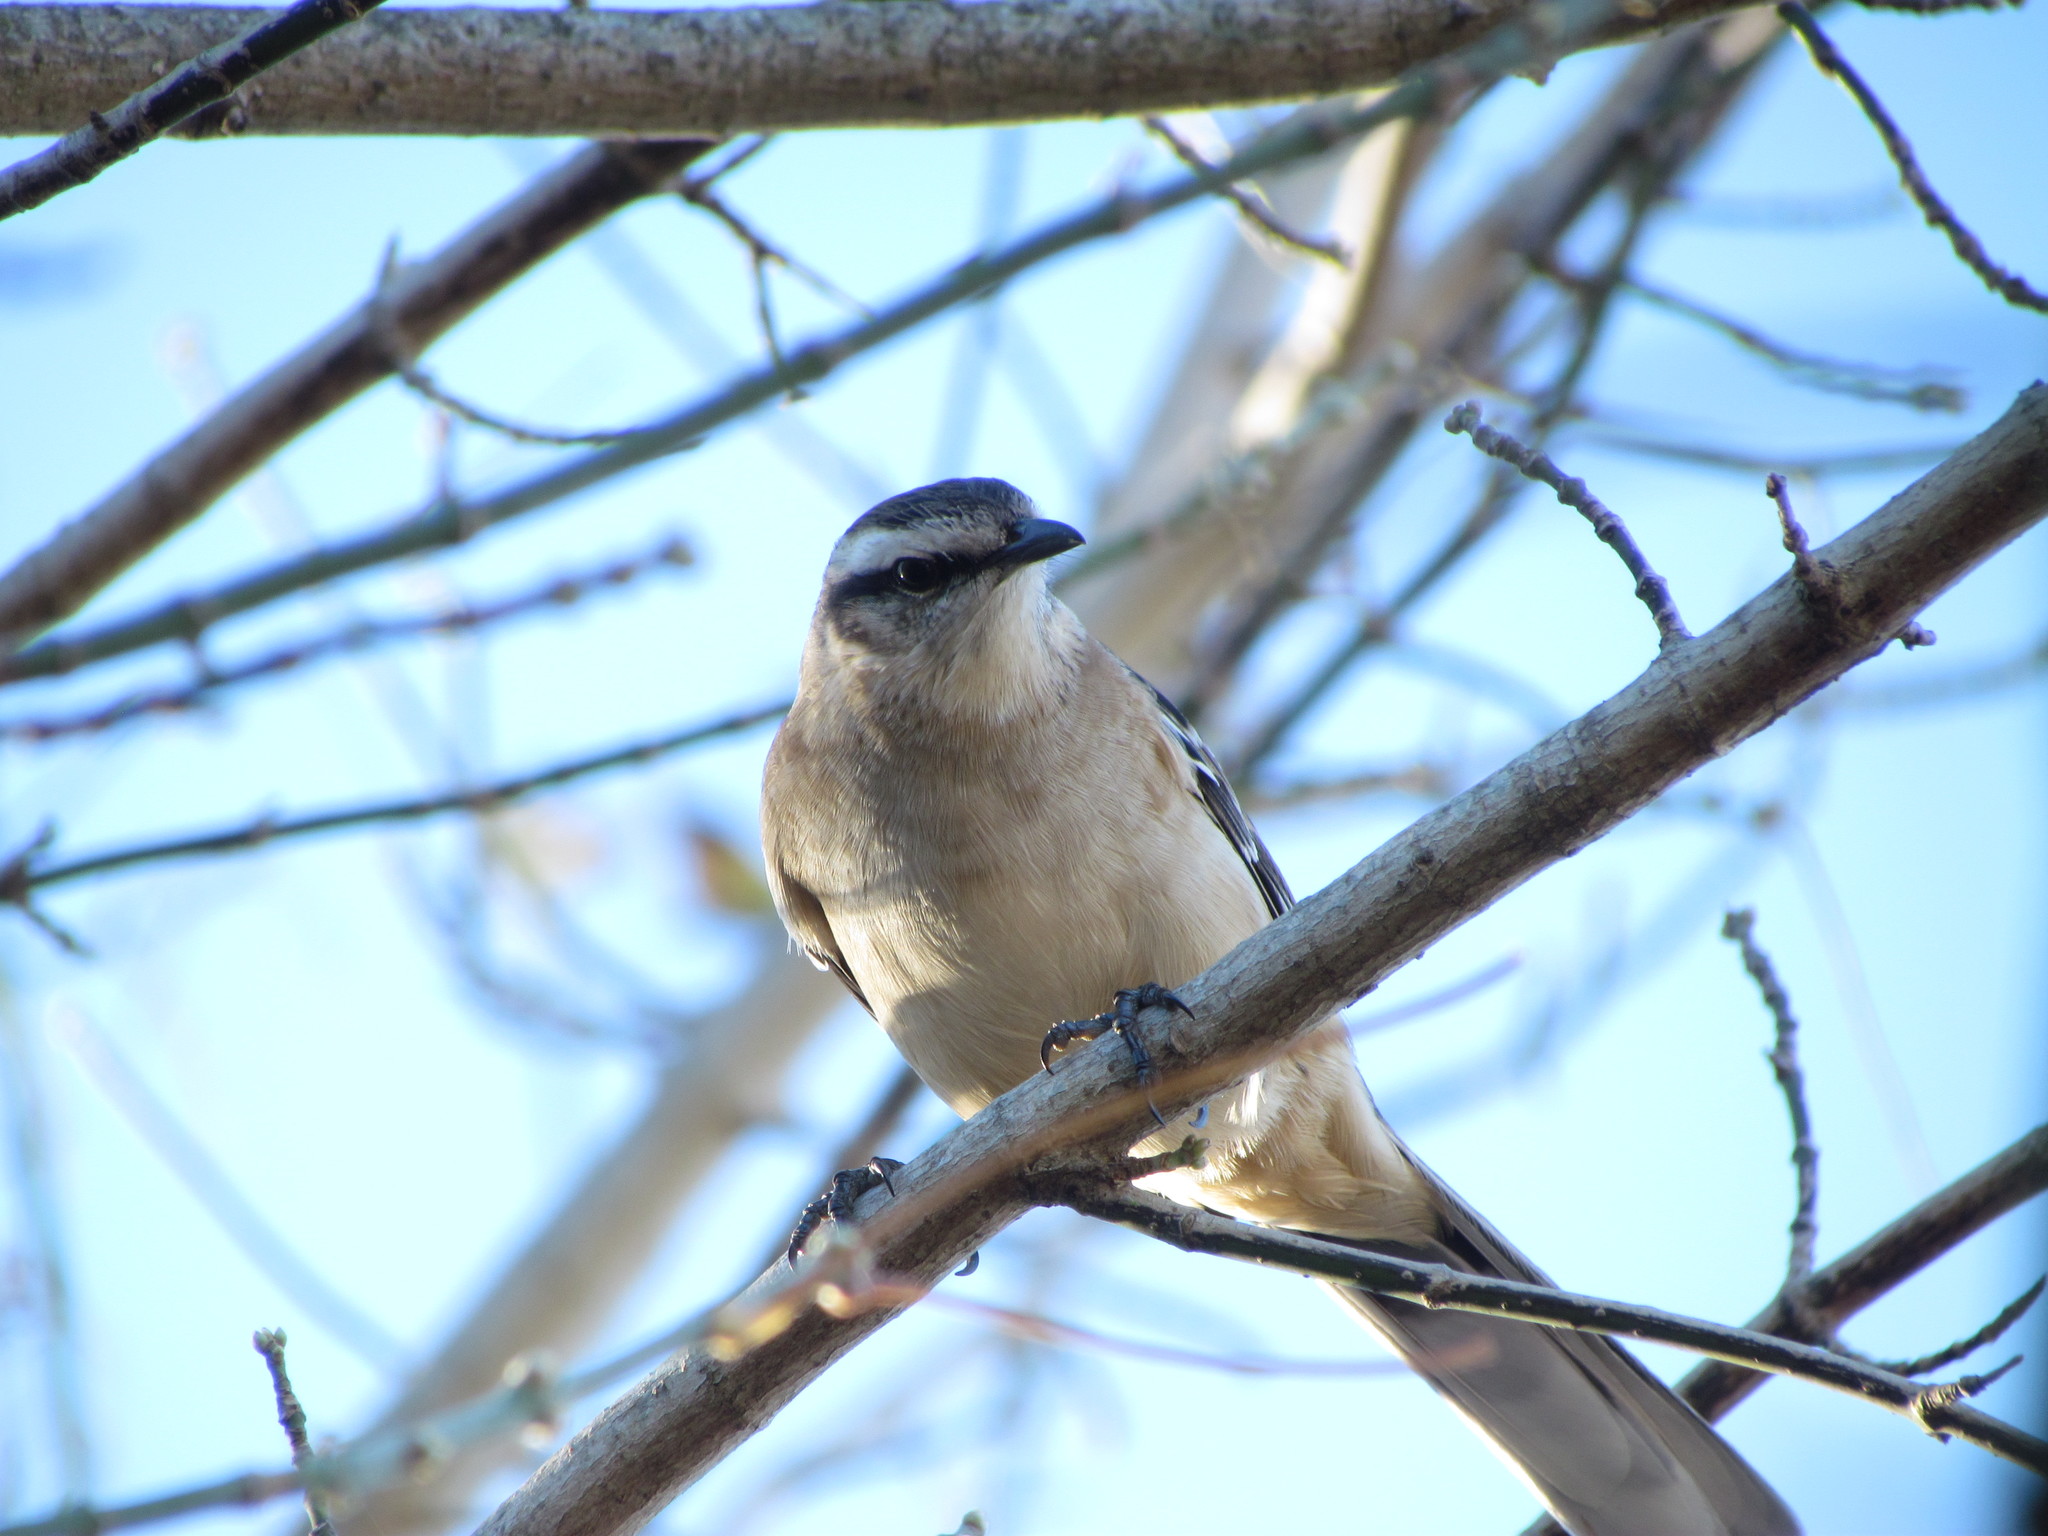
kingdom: Animalia
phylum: Chordata
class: Aves
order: Passeriformes
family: Mimidae
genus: Mimus
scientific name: Mimus saturninus
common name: Chalk-browed mockingbird
